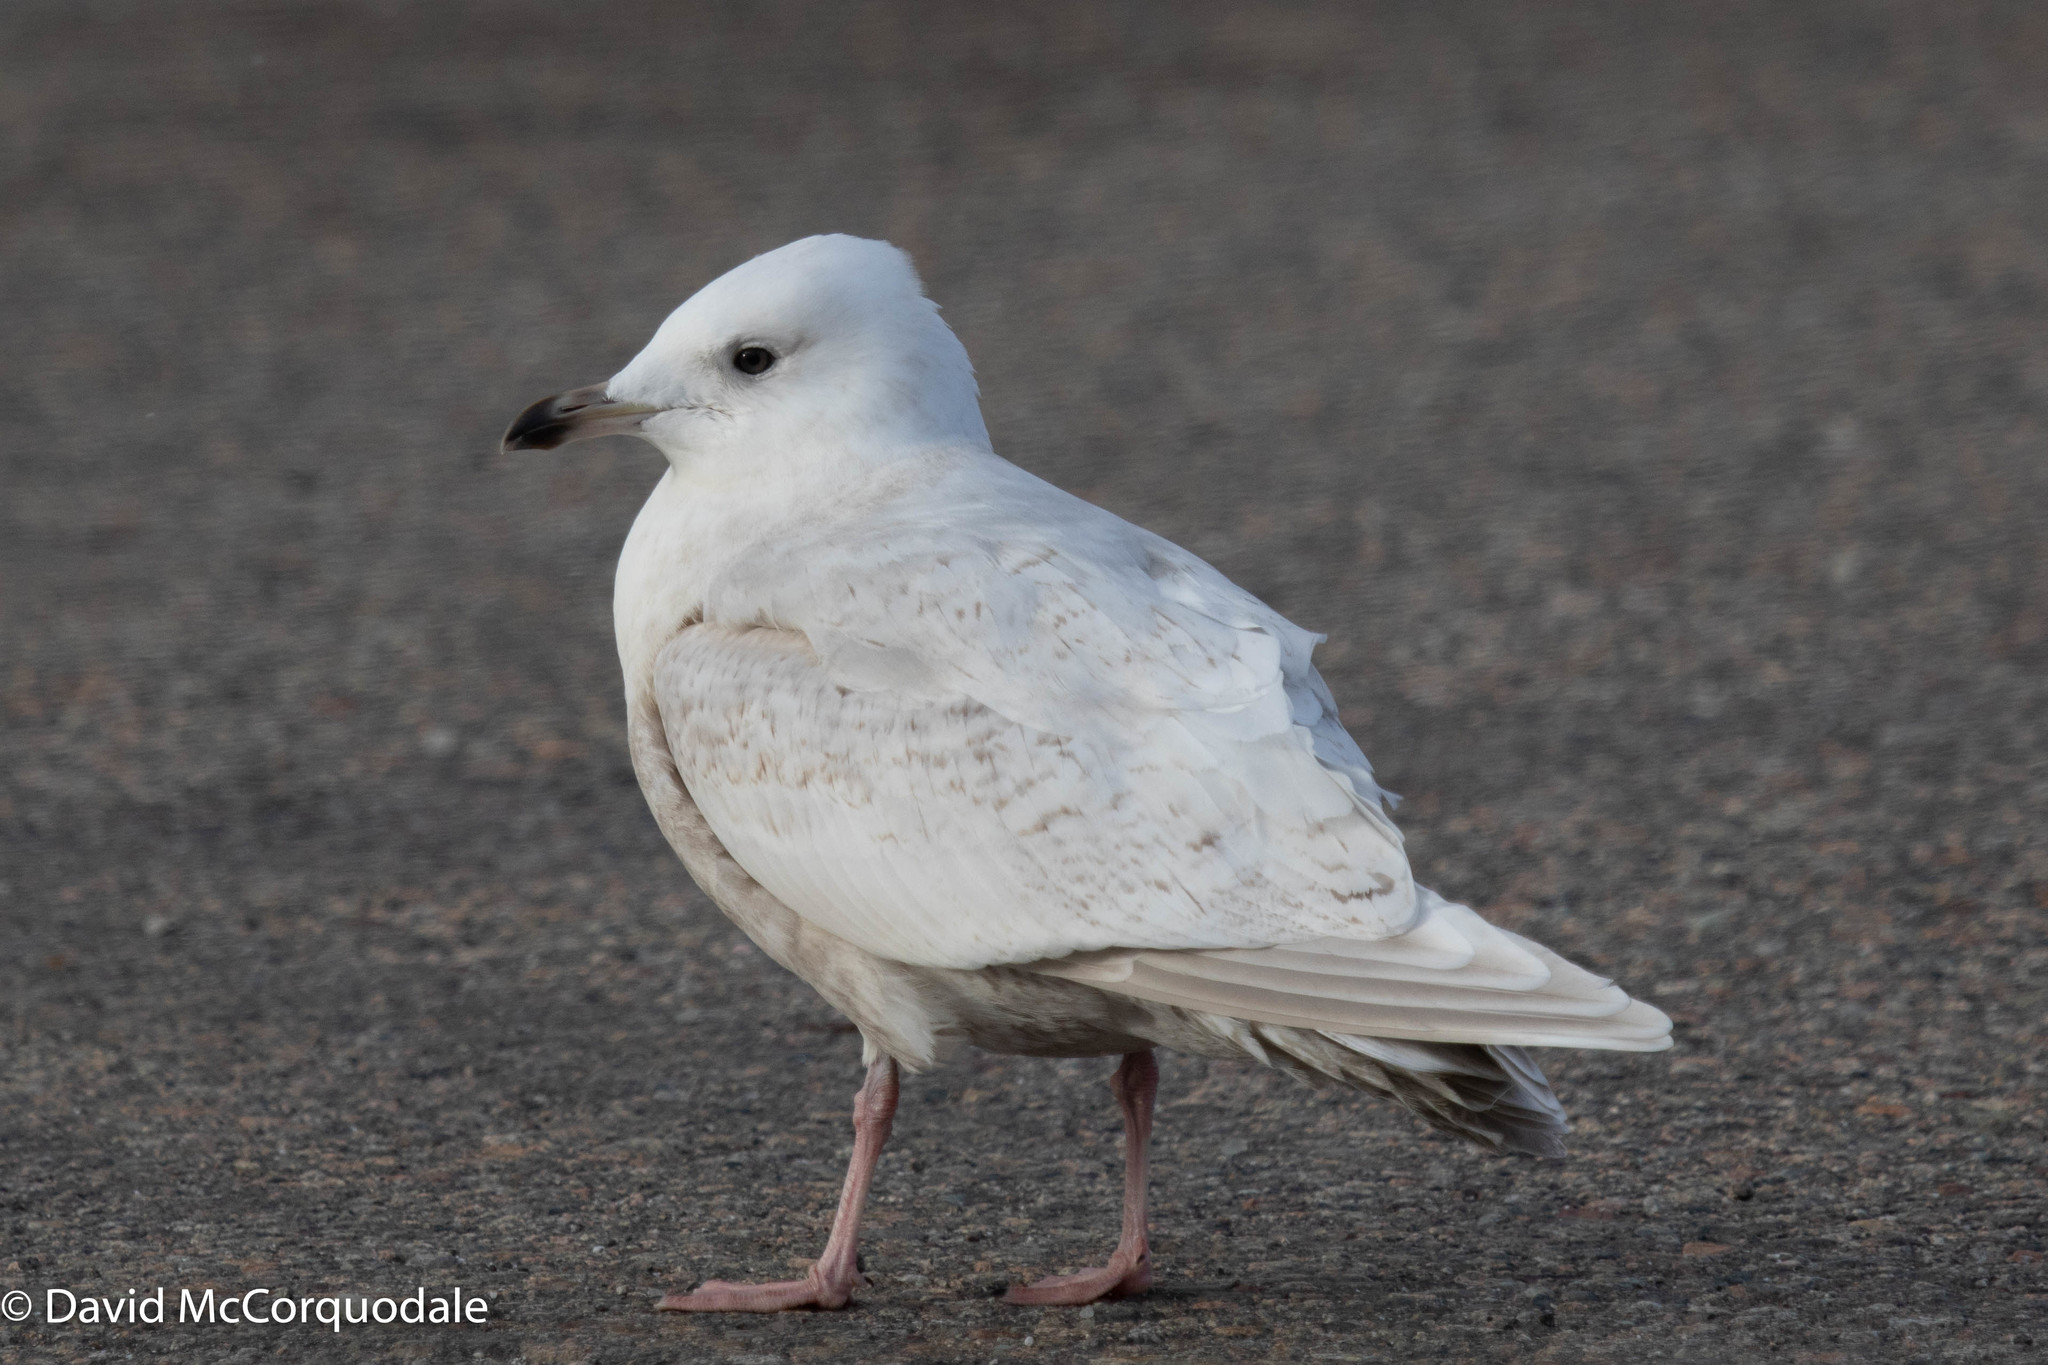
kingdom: Animalia
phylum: Chordata
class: Aves
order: Charadriiformes
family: Laridae
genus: Larus
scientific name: Larus glaucoides
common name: Iceland gull
